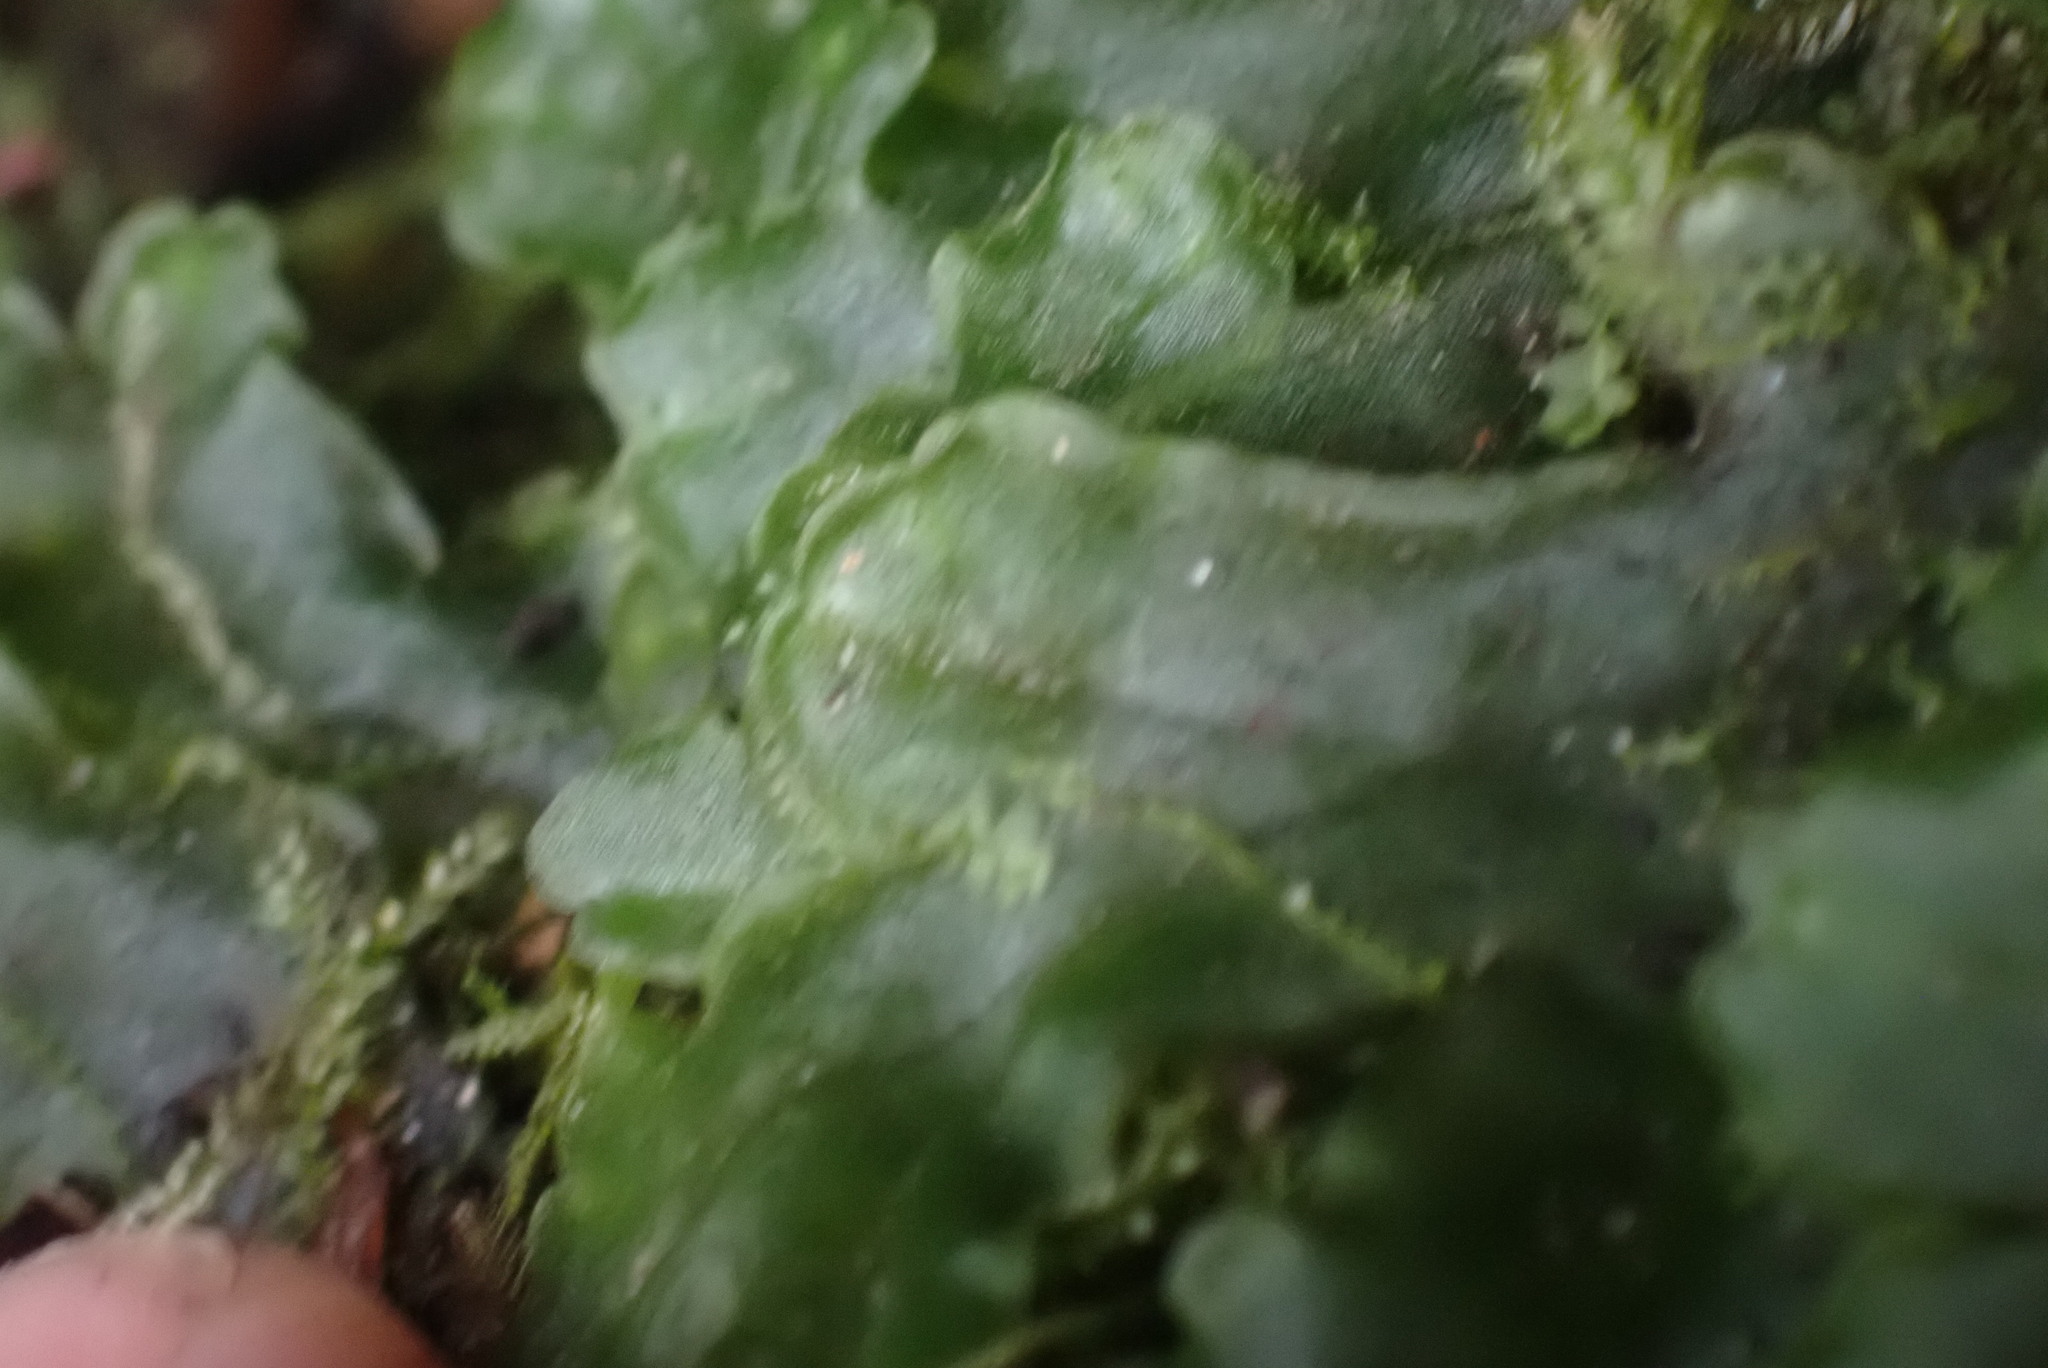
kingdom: Plantae
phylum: Marchantiophyta
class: Jungermanniopsida
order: Pelliales
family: Pelliaceae
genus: Pellia
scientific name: Pellia neesiana
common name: Nees  pellia
